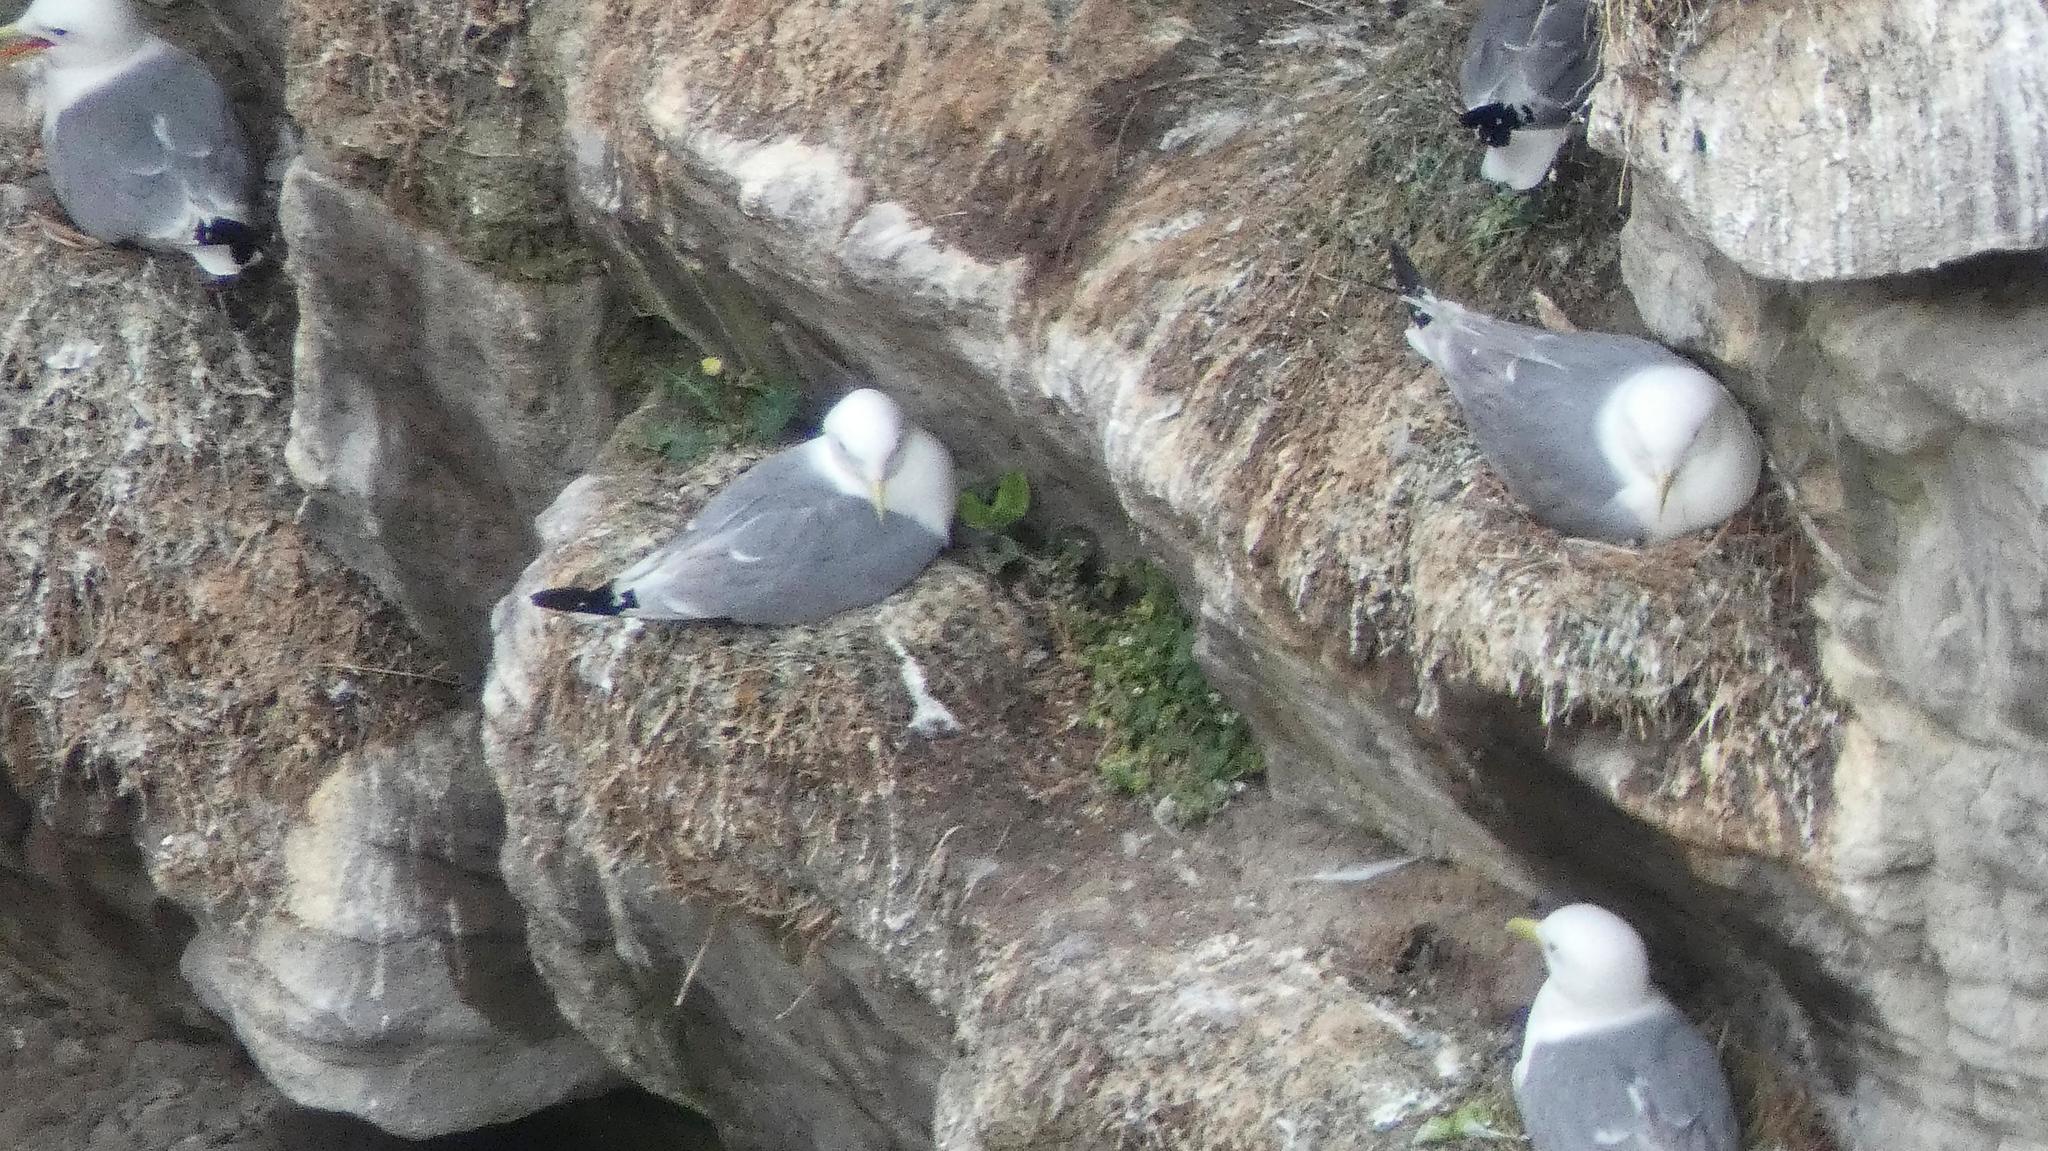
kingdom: Animalia
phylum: Chordata
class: Aves
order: Charadriiformes
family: Laridae
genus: Rissa
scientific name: Rissa tridactyla
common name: Black-legged kittiwake
